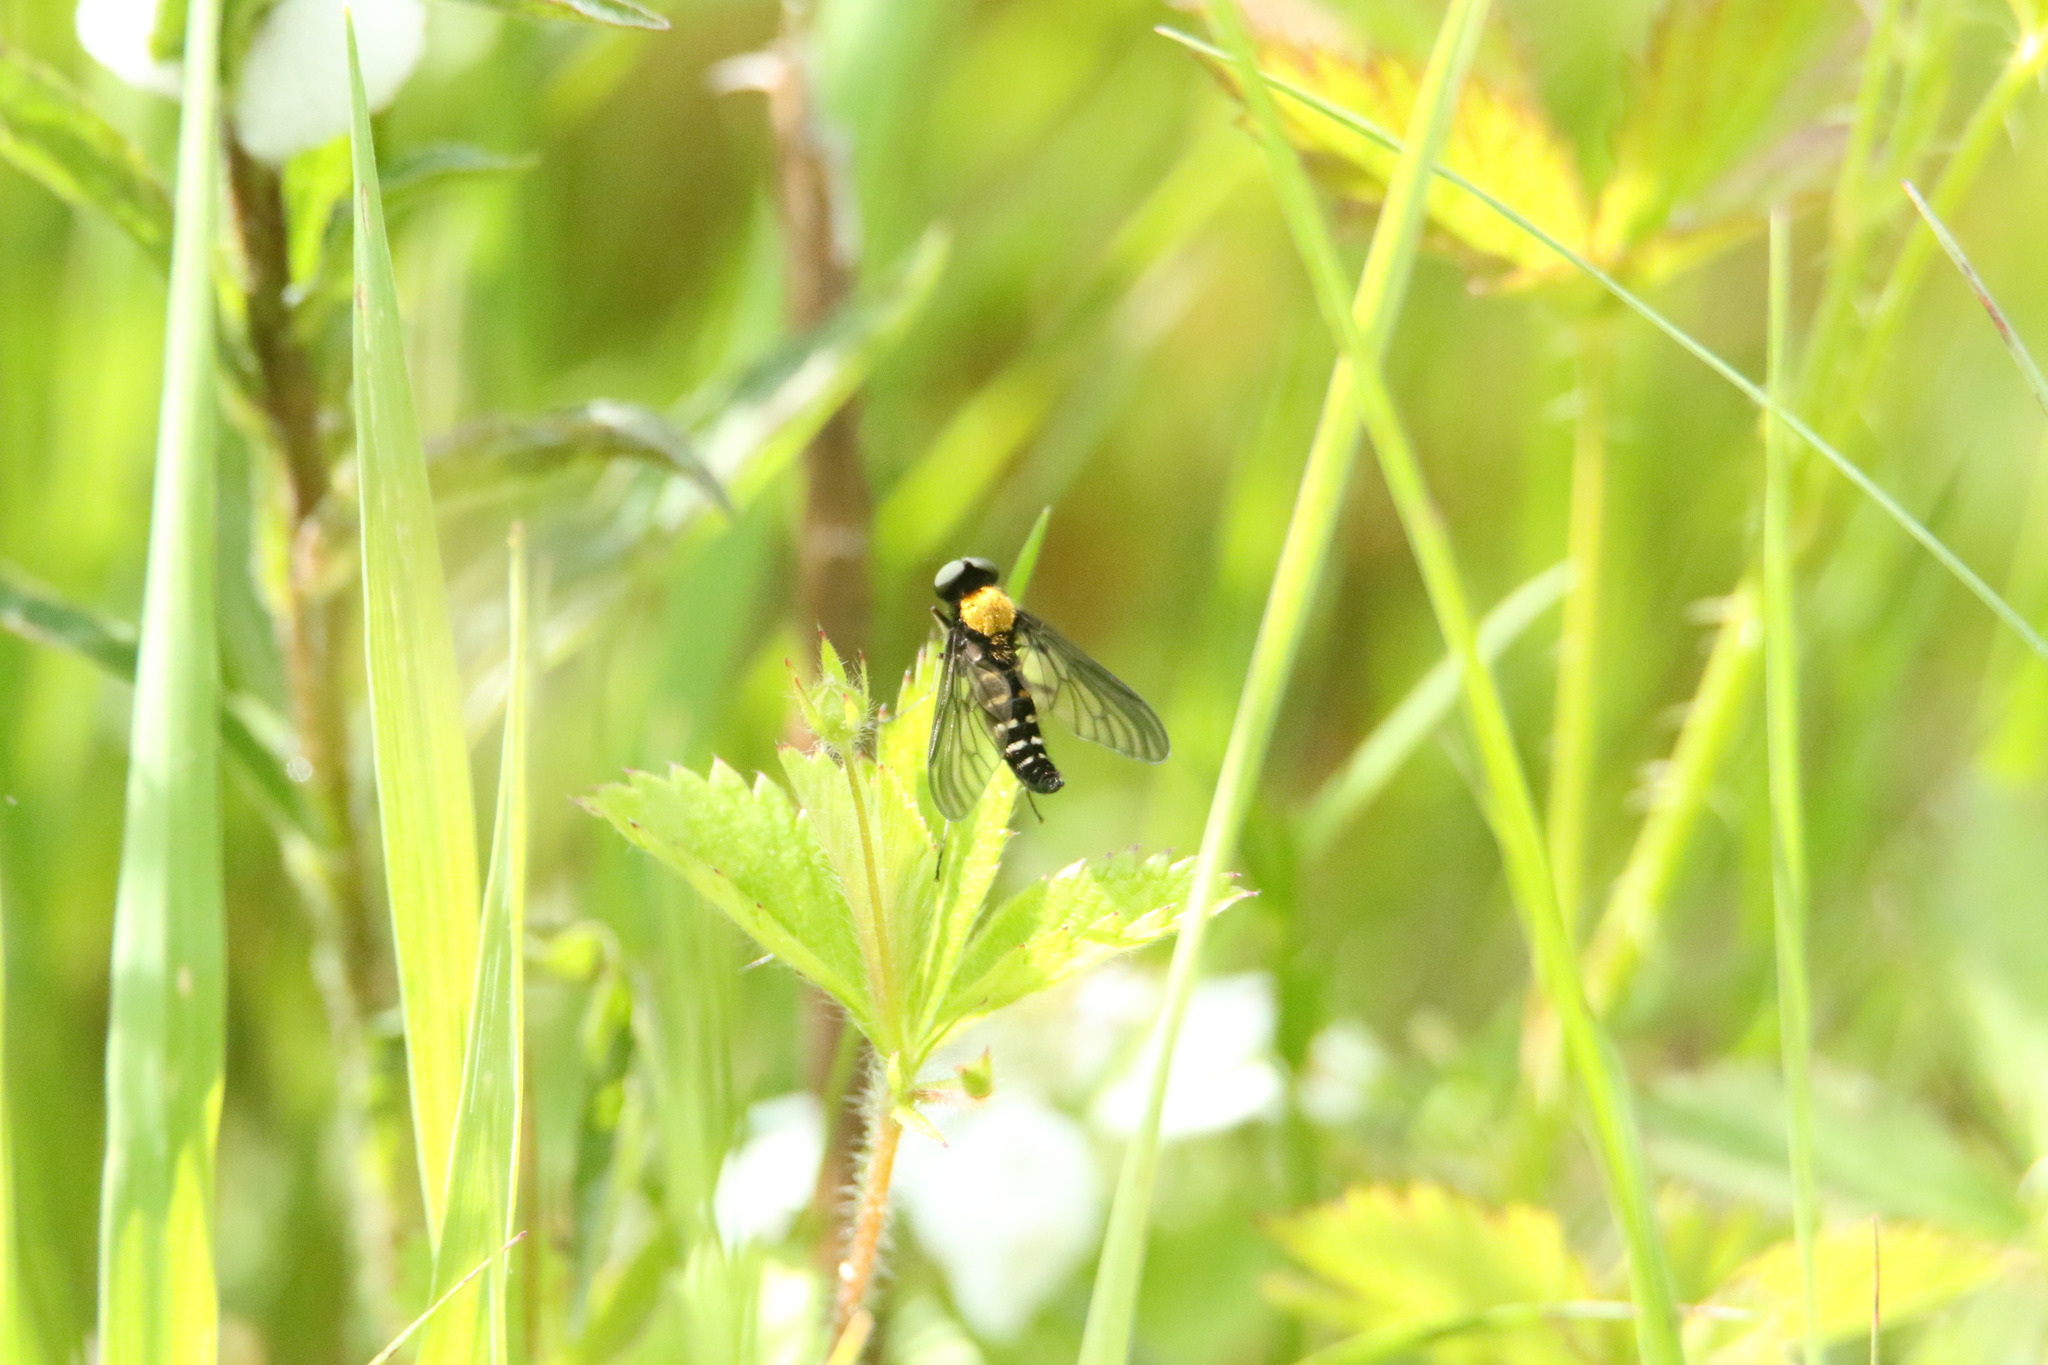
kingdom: Animalia
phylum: Arthropoda
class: Insecta
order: Diptera
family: Rhagionidae
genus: Chrysopilus
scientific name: Chrysopilus thoracicus
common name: Golden-backed snipe fly
